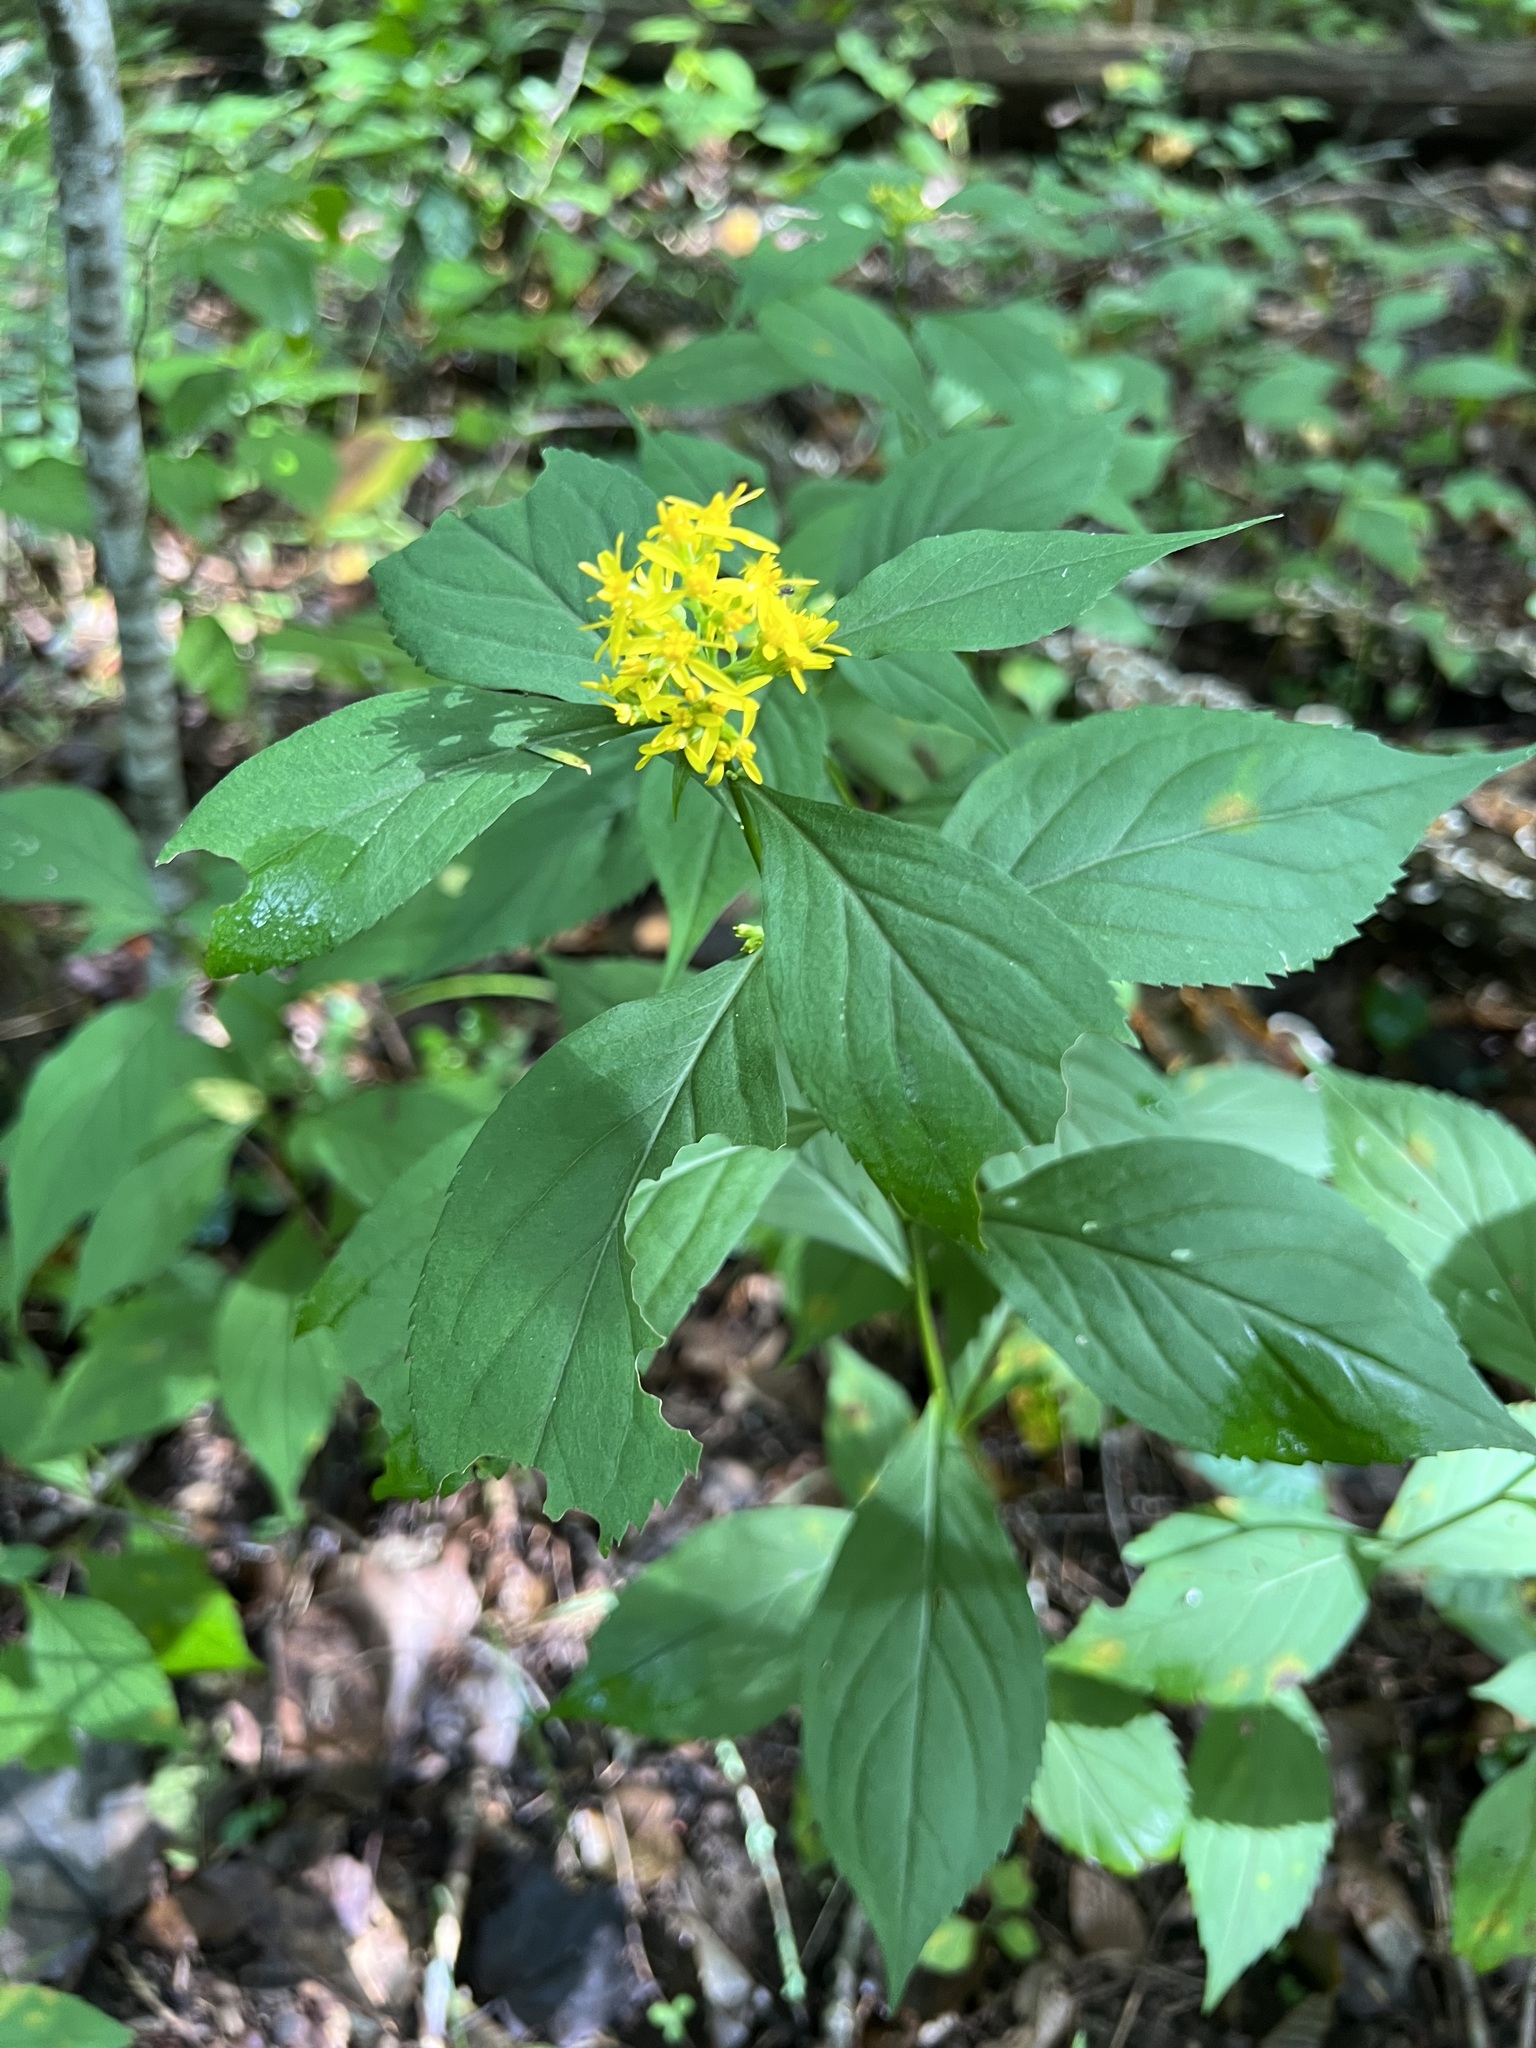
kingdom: Plantae
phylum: Tracheophyta
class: Magnoliopsida
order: Asterales
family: Asteraceae
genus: Solidago
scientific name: Solidago flexicaulis
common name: Zig-zag goldenrod
